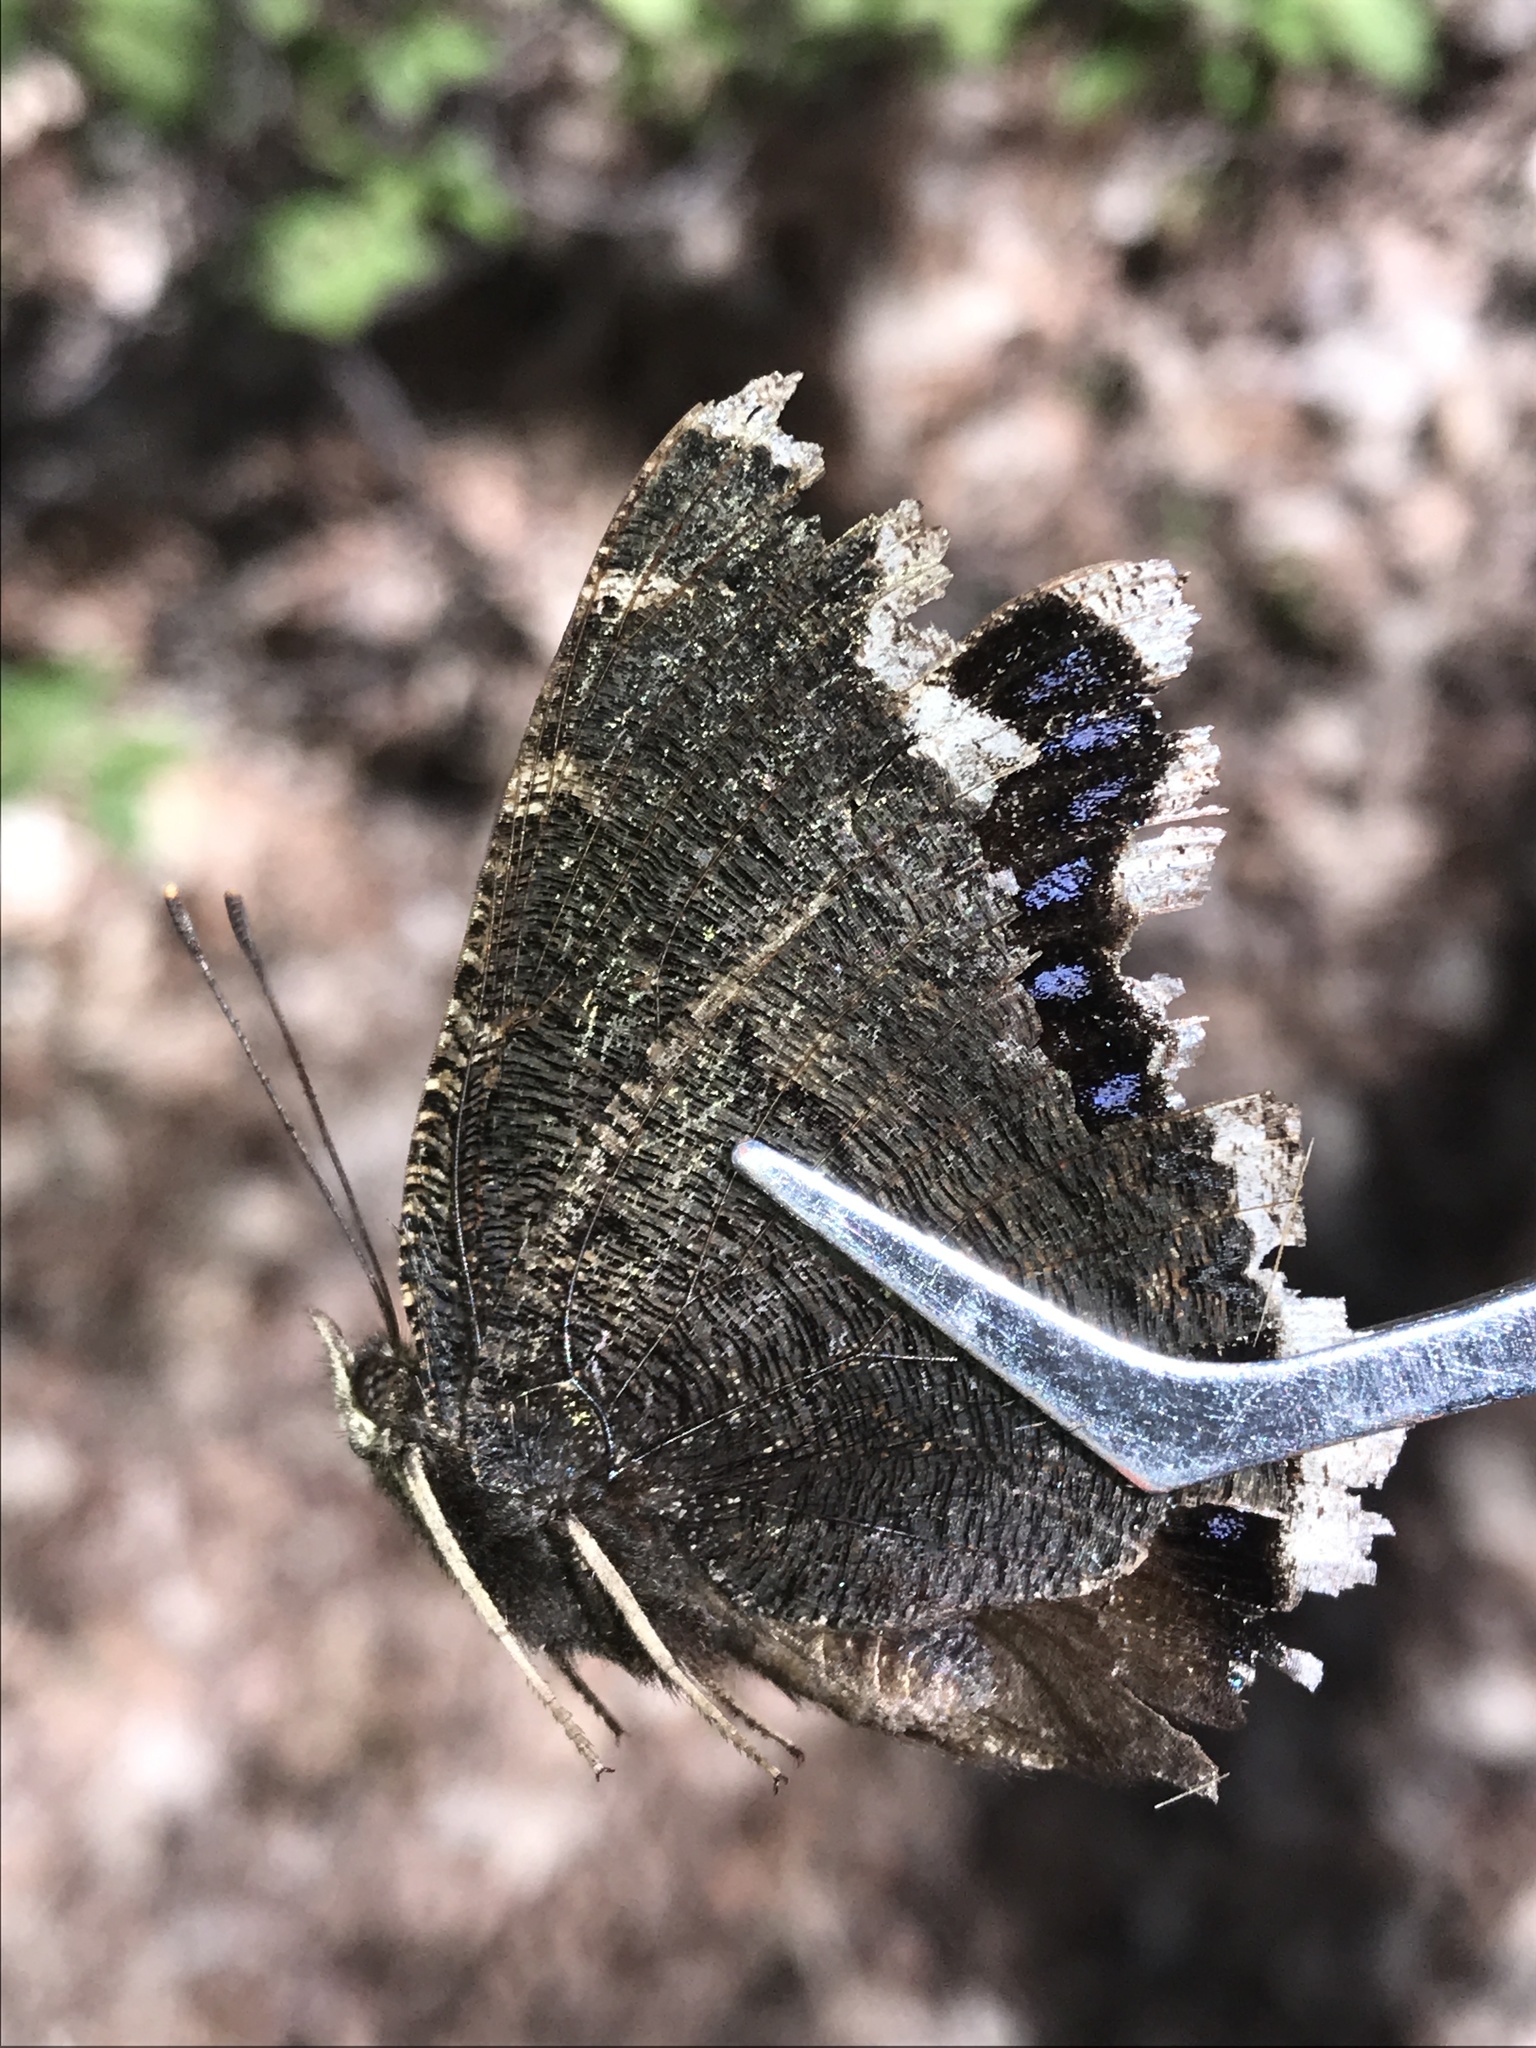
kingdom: Animalia
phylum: Arthropoda
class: Insecta
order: Lepidoptera
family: Nymphalidae
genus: Nymphalis
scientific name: Nymphalis antiopa
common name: Camberwell beauty
